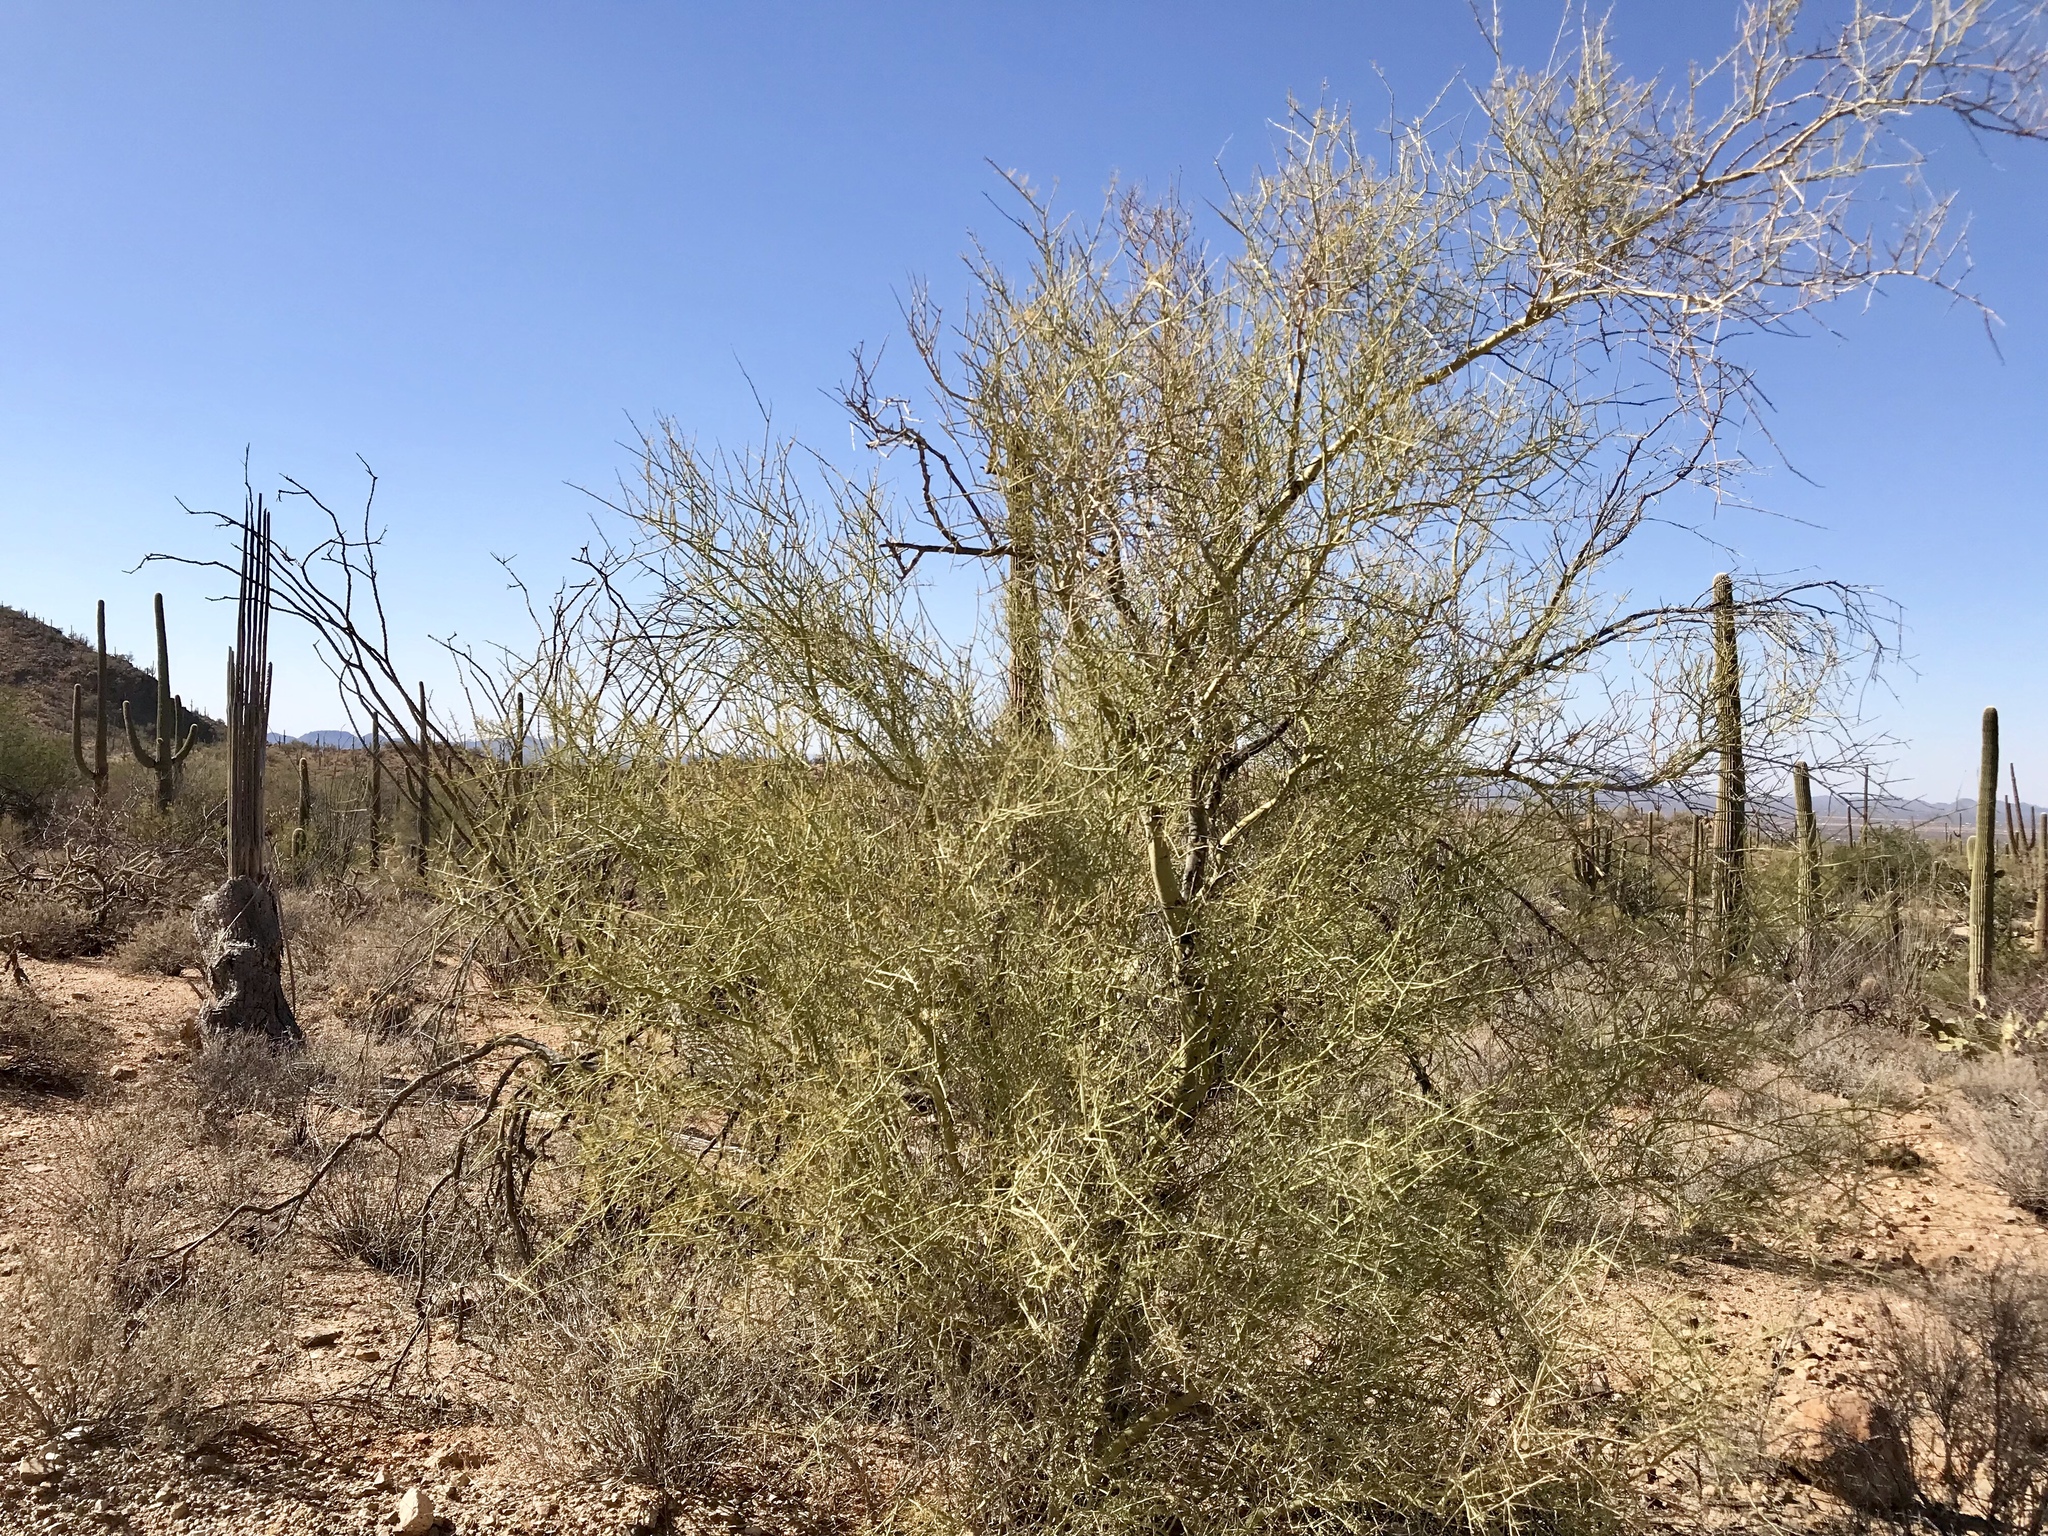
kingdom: Plantae
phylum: Tracheophyta
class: Magnoliopsida
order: Fabales
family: Fabaceae
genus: Parkinsonia
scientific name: Parkinsonia microphylla
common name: Yellow paloverde
